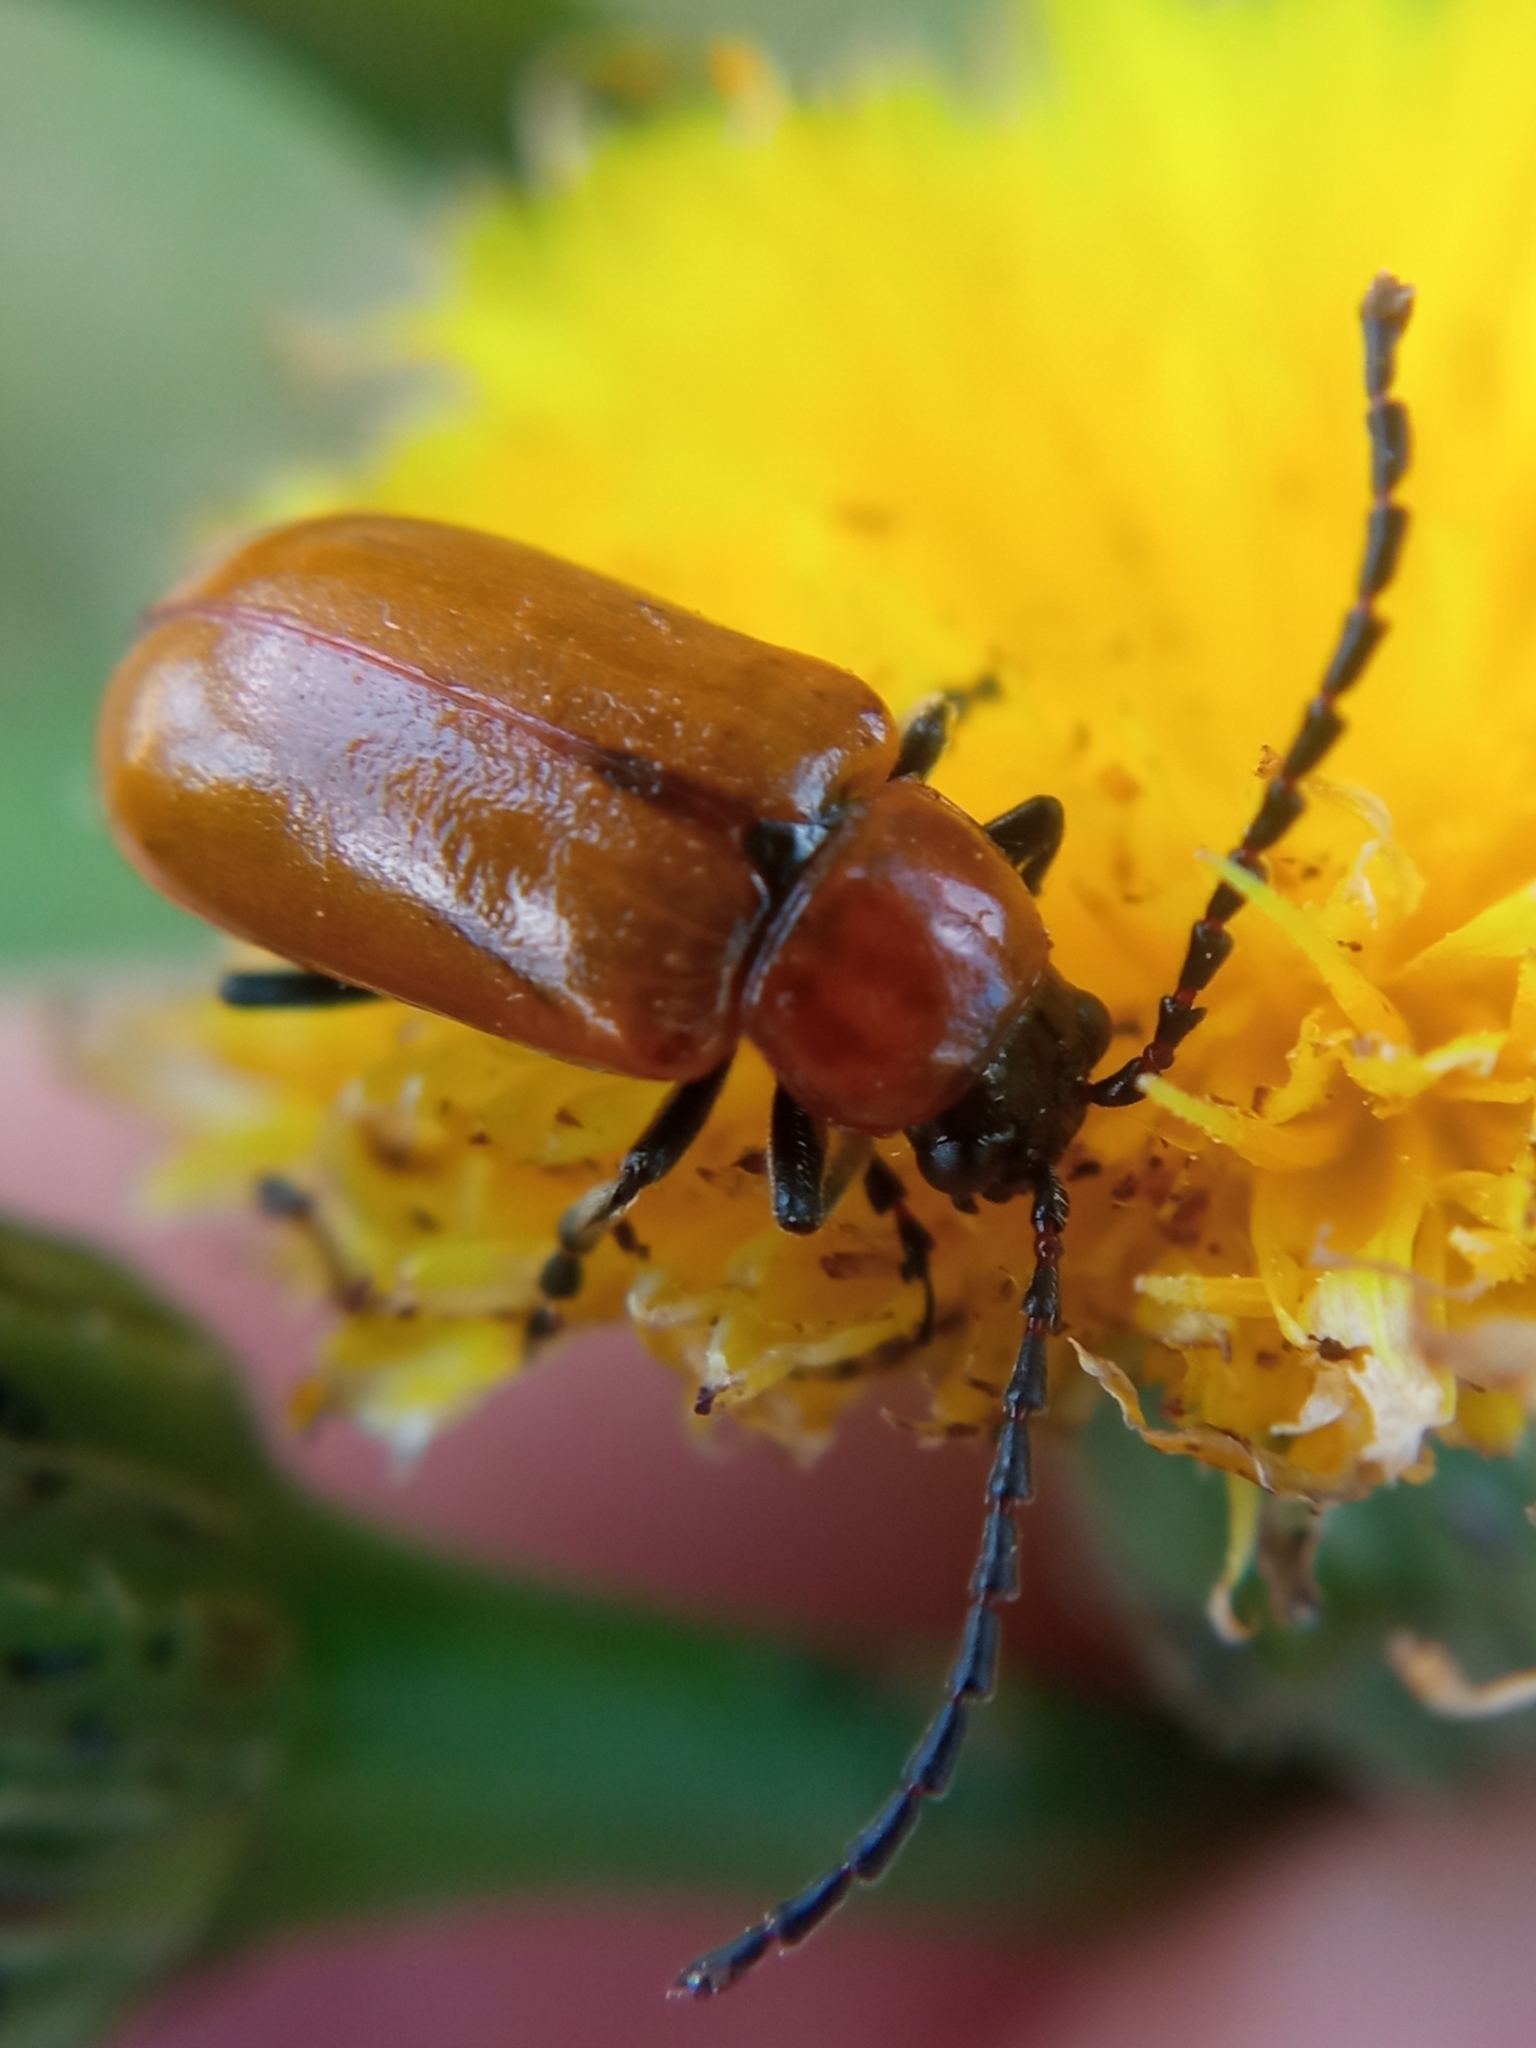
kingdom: Animalia
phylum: Arthropoda
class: Insecta
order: Coleoptera
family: Chrysomelidae
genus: Exosoma
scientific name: Exosoma lusitanicum
